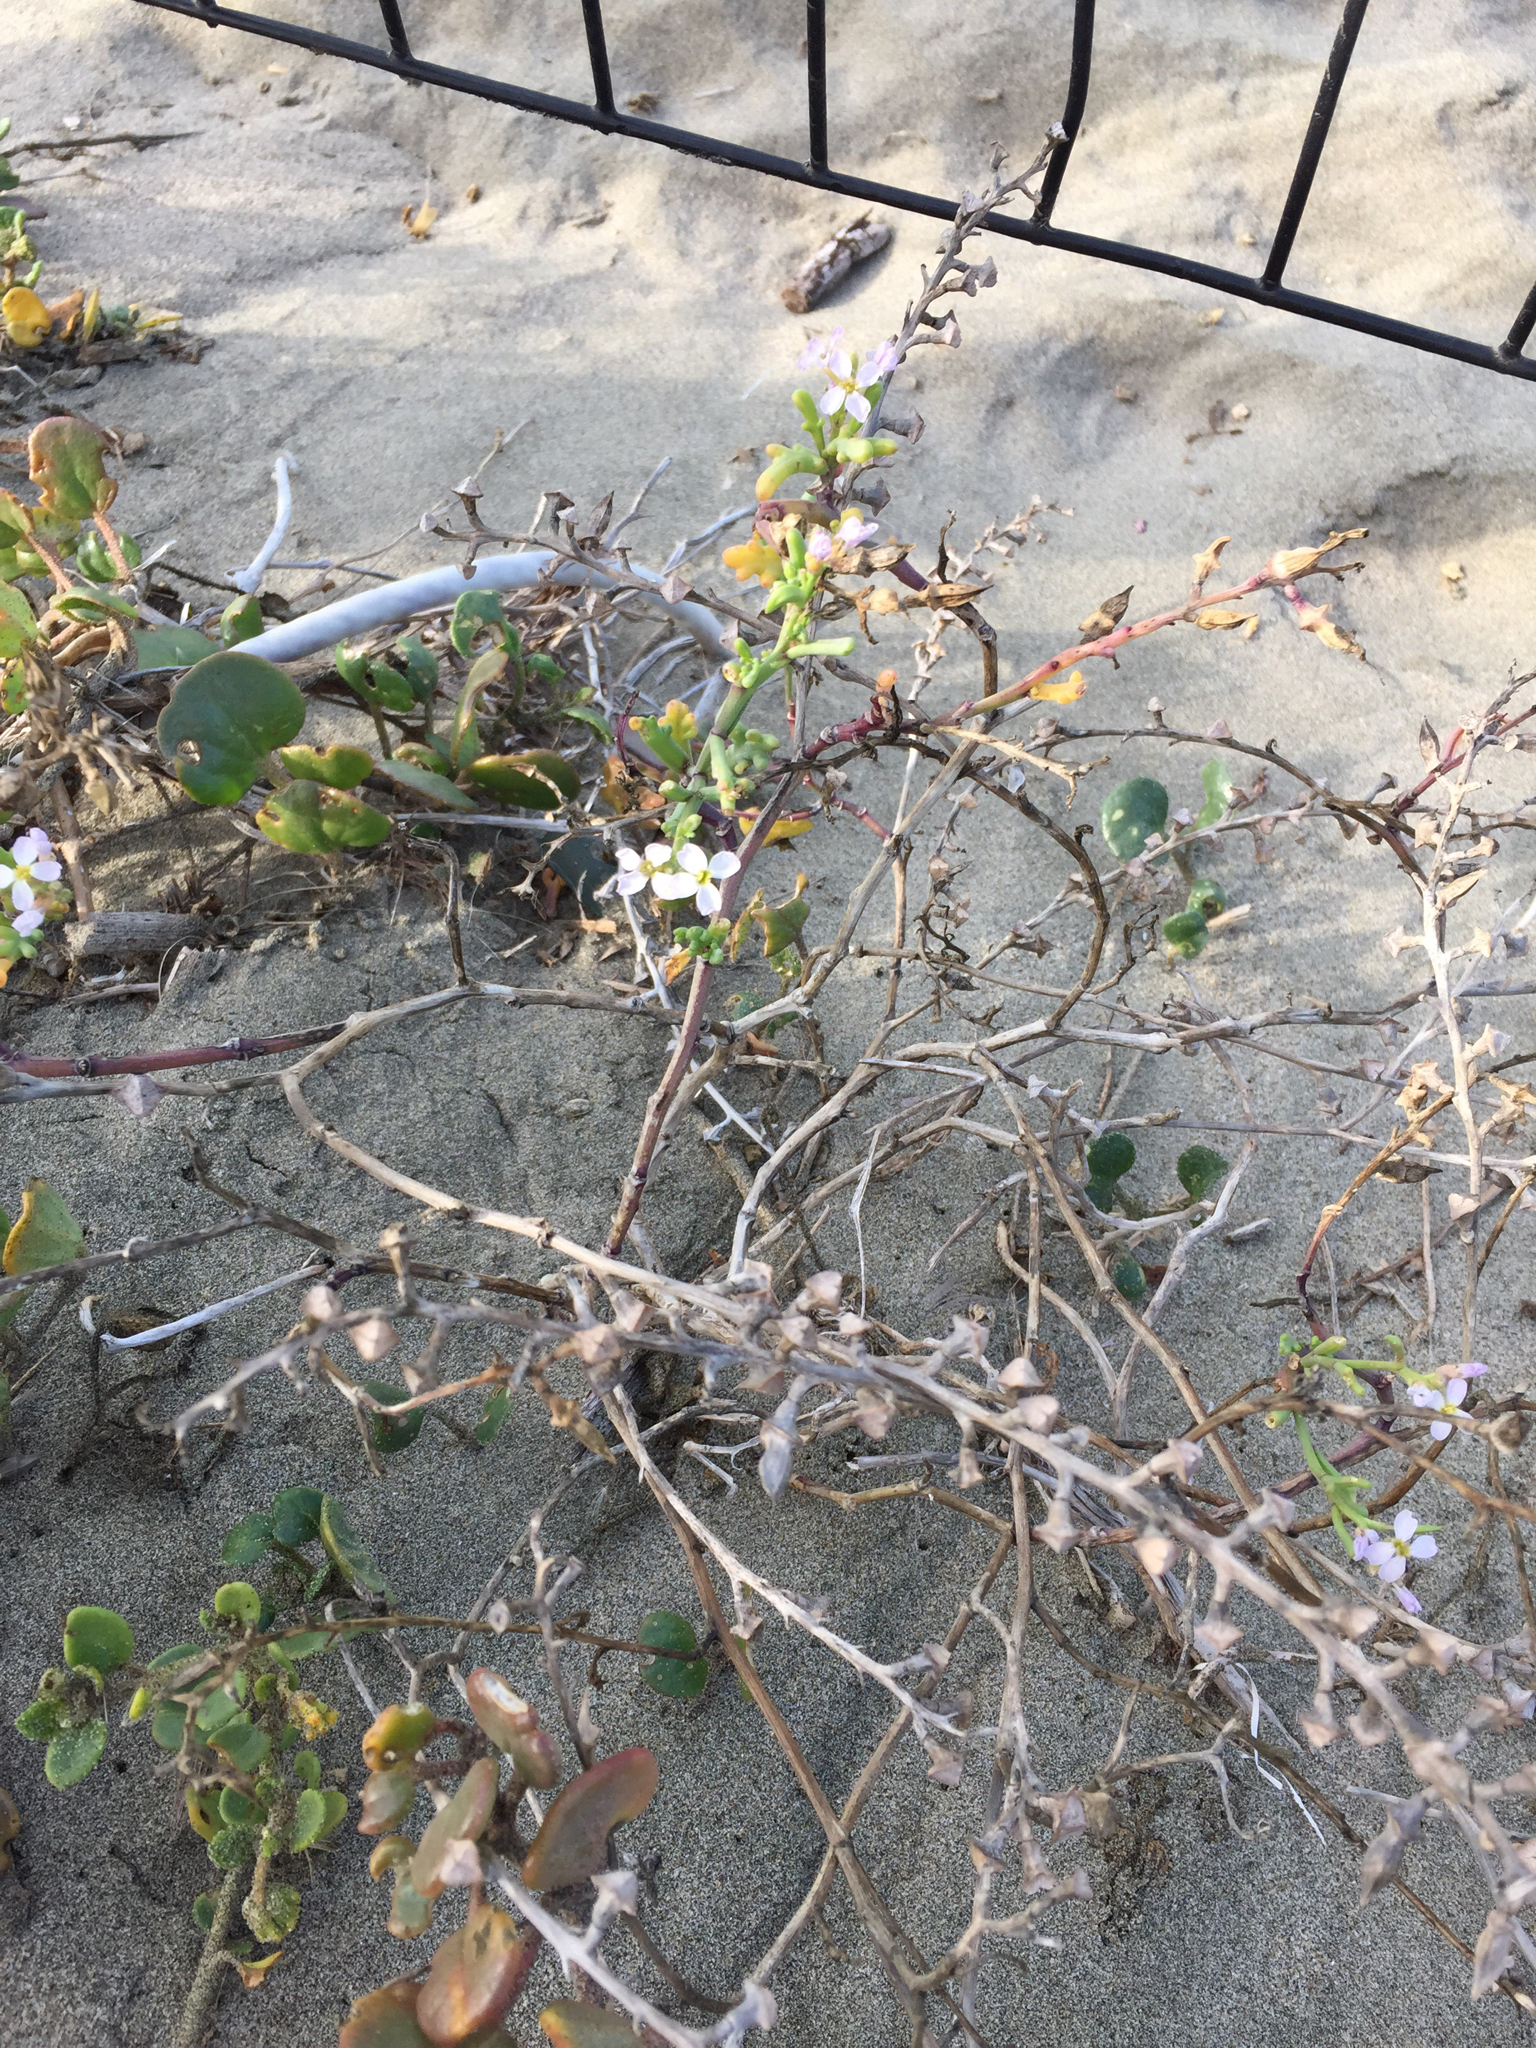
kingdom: Plantae
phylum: Tracheophyta
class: Magnoliopsida
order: Brassicales
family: Brassicaceae
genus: Cakile
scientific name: Cakile maritima
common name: Sea rocket
